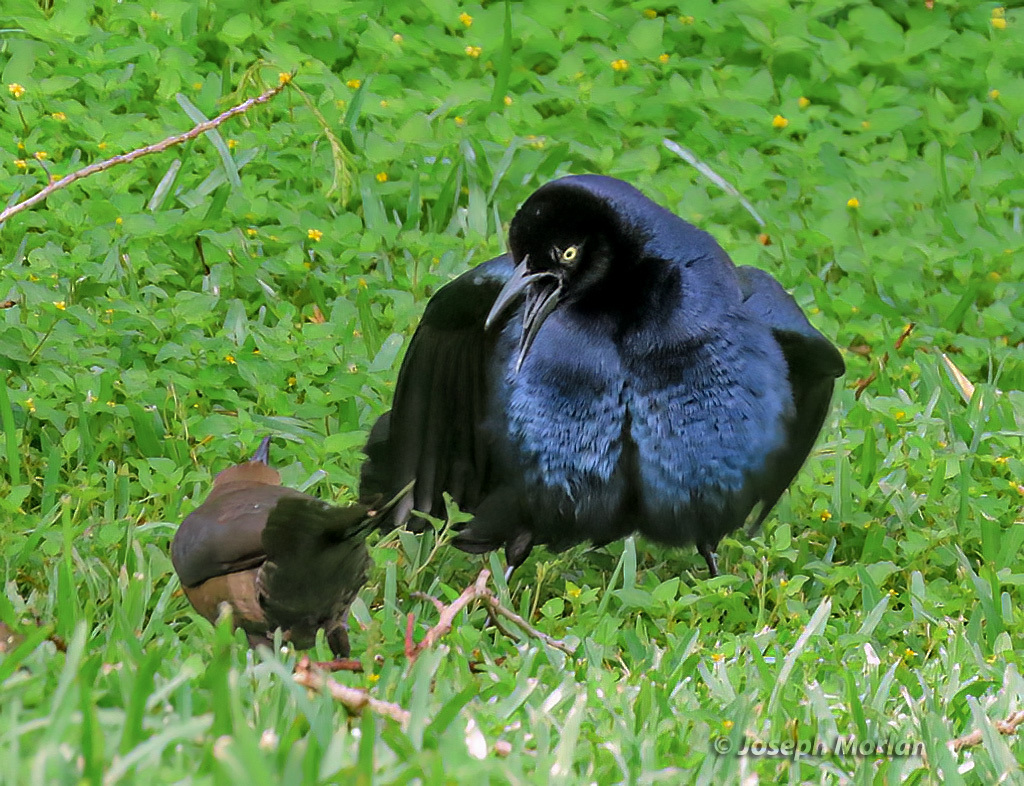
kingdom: Animalia
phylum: Chordata
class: Aves
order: Passeriformes
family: Icteridae
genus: Quiscalus
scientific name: Quiscalus mexicanus
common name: Great-tailed grackle
